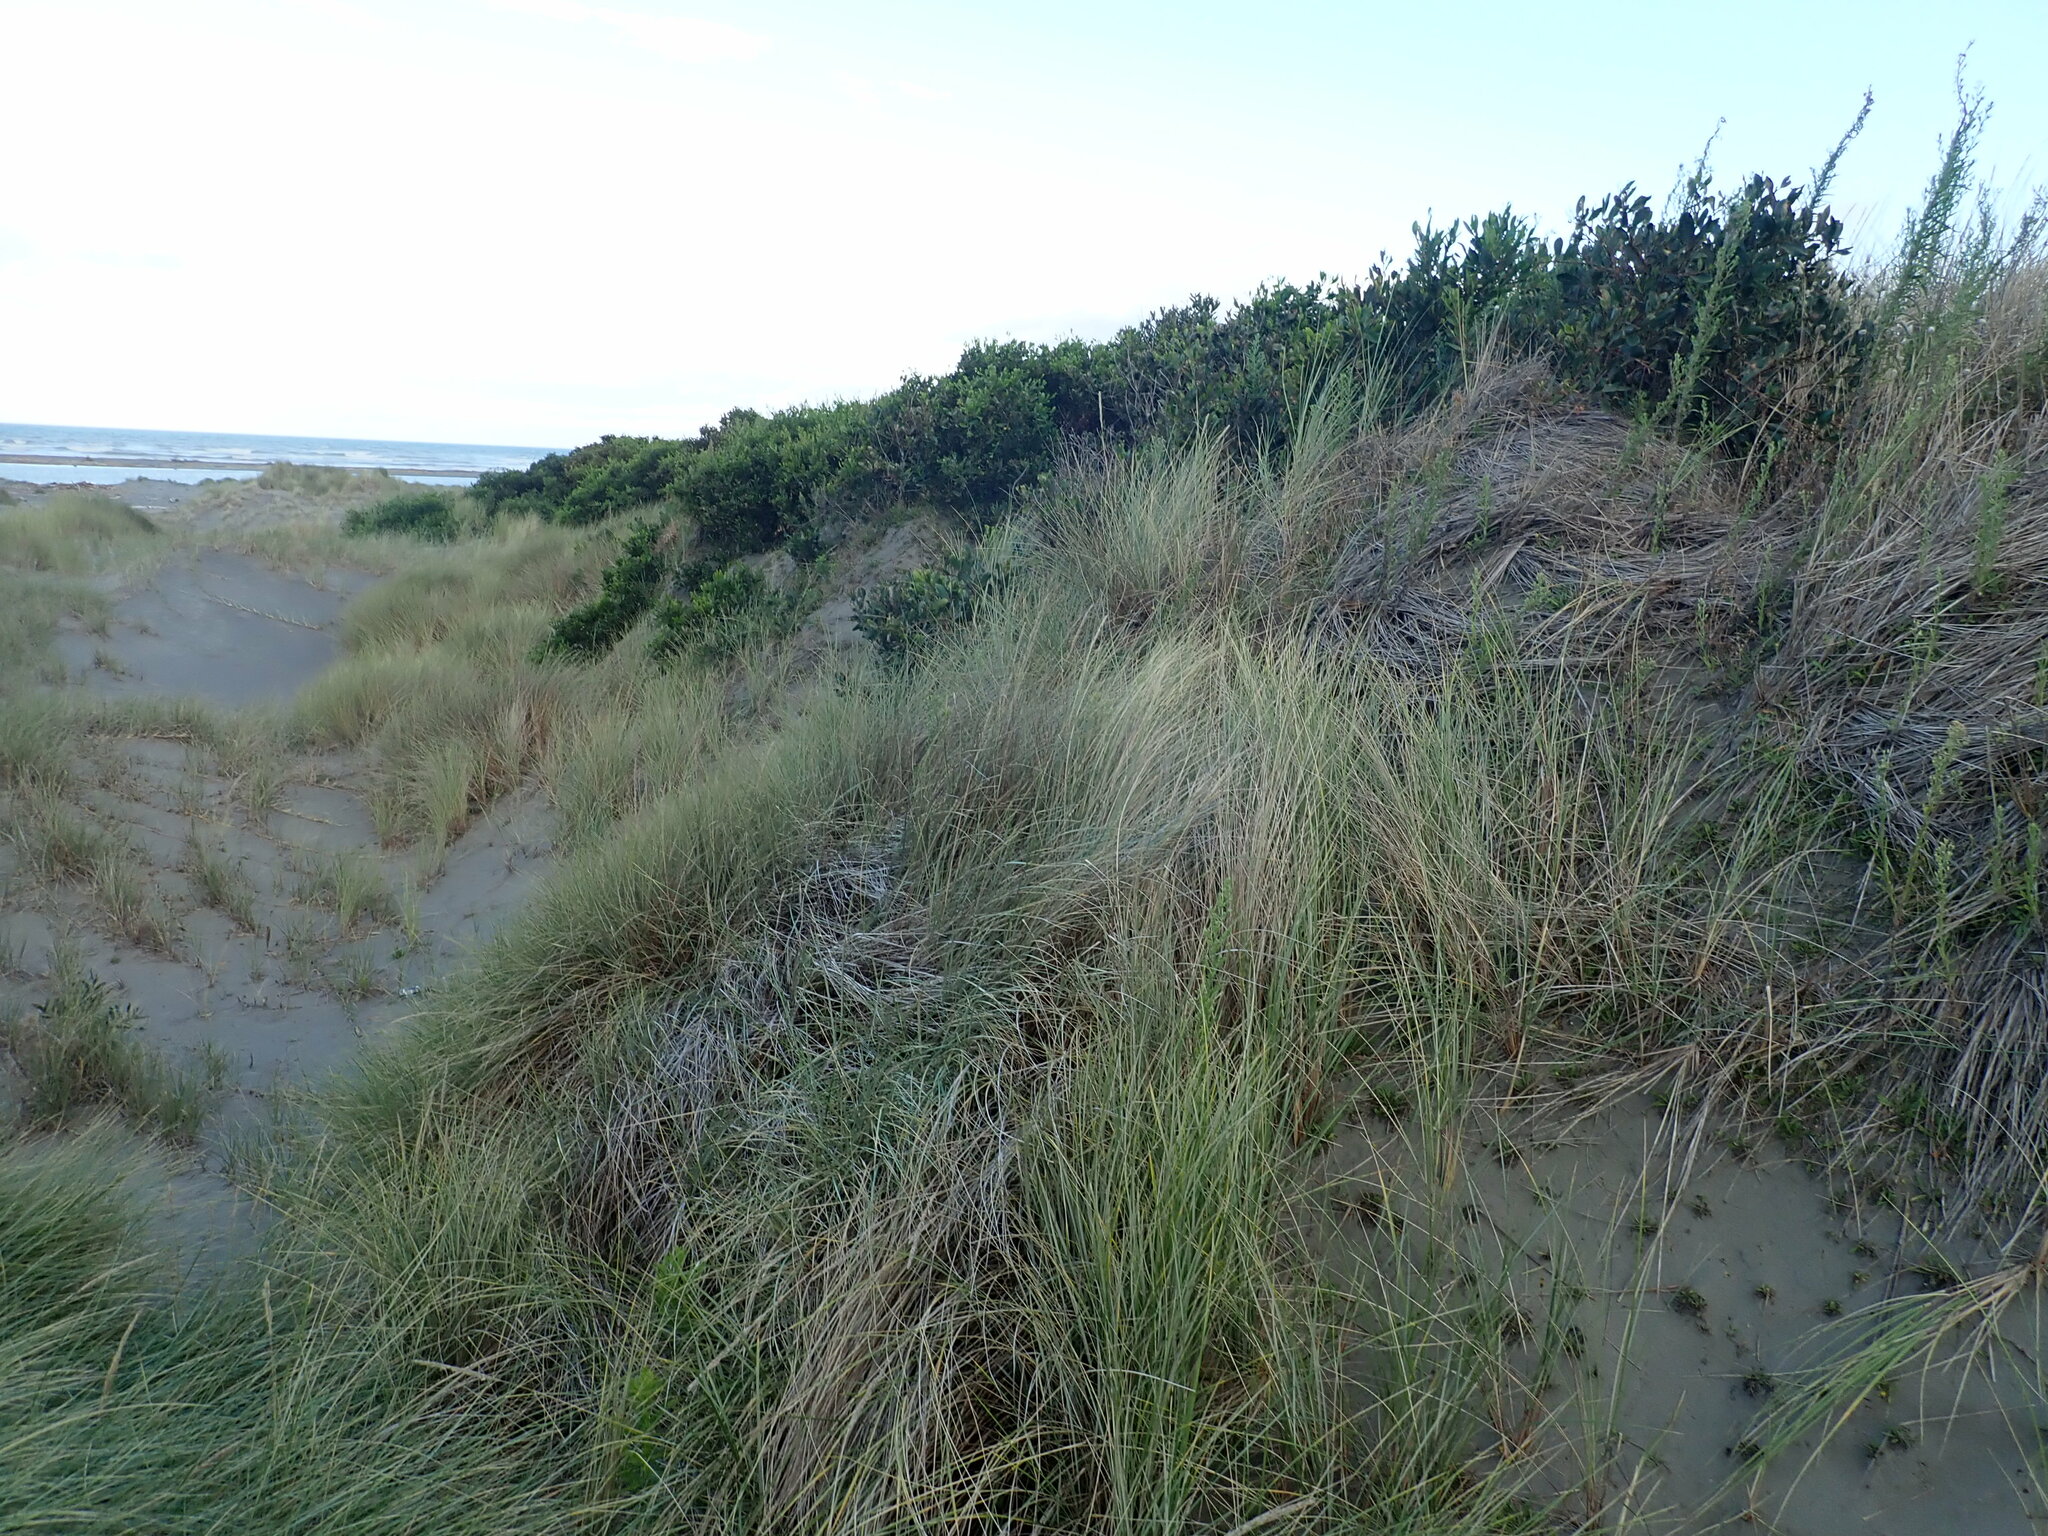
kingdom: Plantae
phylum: Tracheophyta
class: Magnoliopsida
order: Fabales
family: Fabaceae
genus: Acacia
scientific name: Acacia longifolia
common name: Sydney golden wattle
